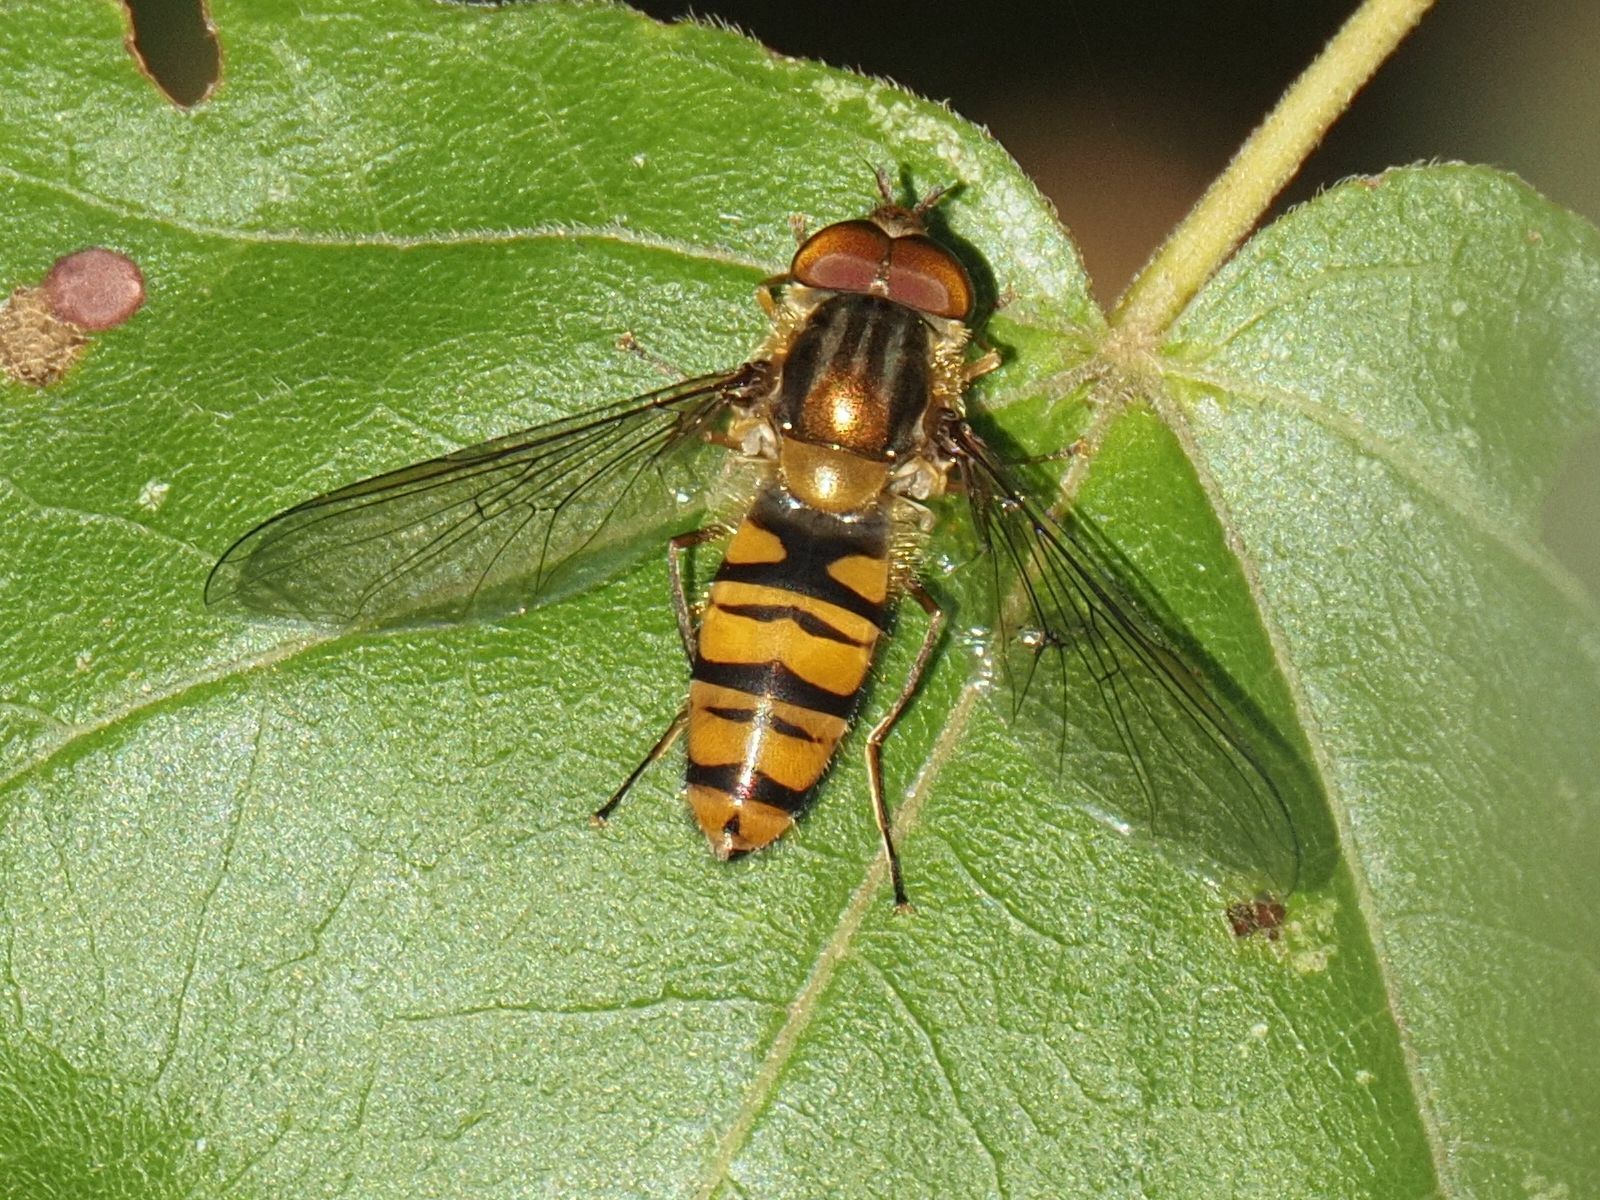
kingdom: Animalia
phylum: Arthropoda
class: Insecta
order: Diptera
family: Syrphidae
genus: Episyrphus
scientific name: Episyrphus balteatus
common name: Marmalade hoverfly
